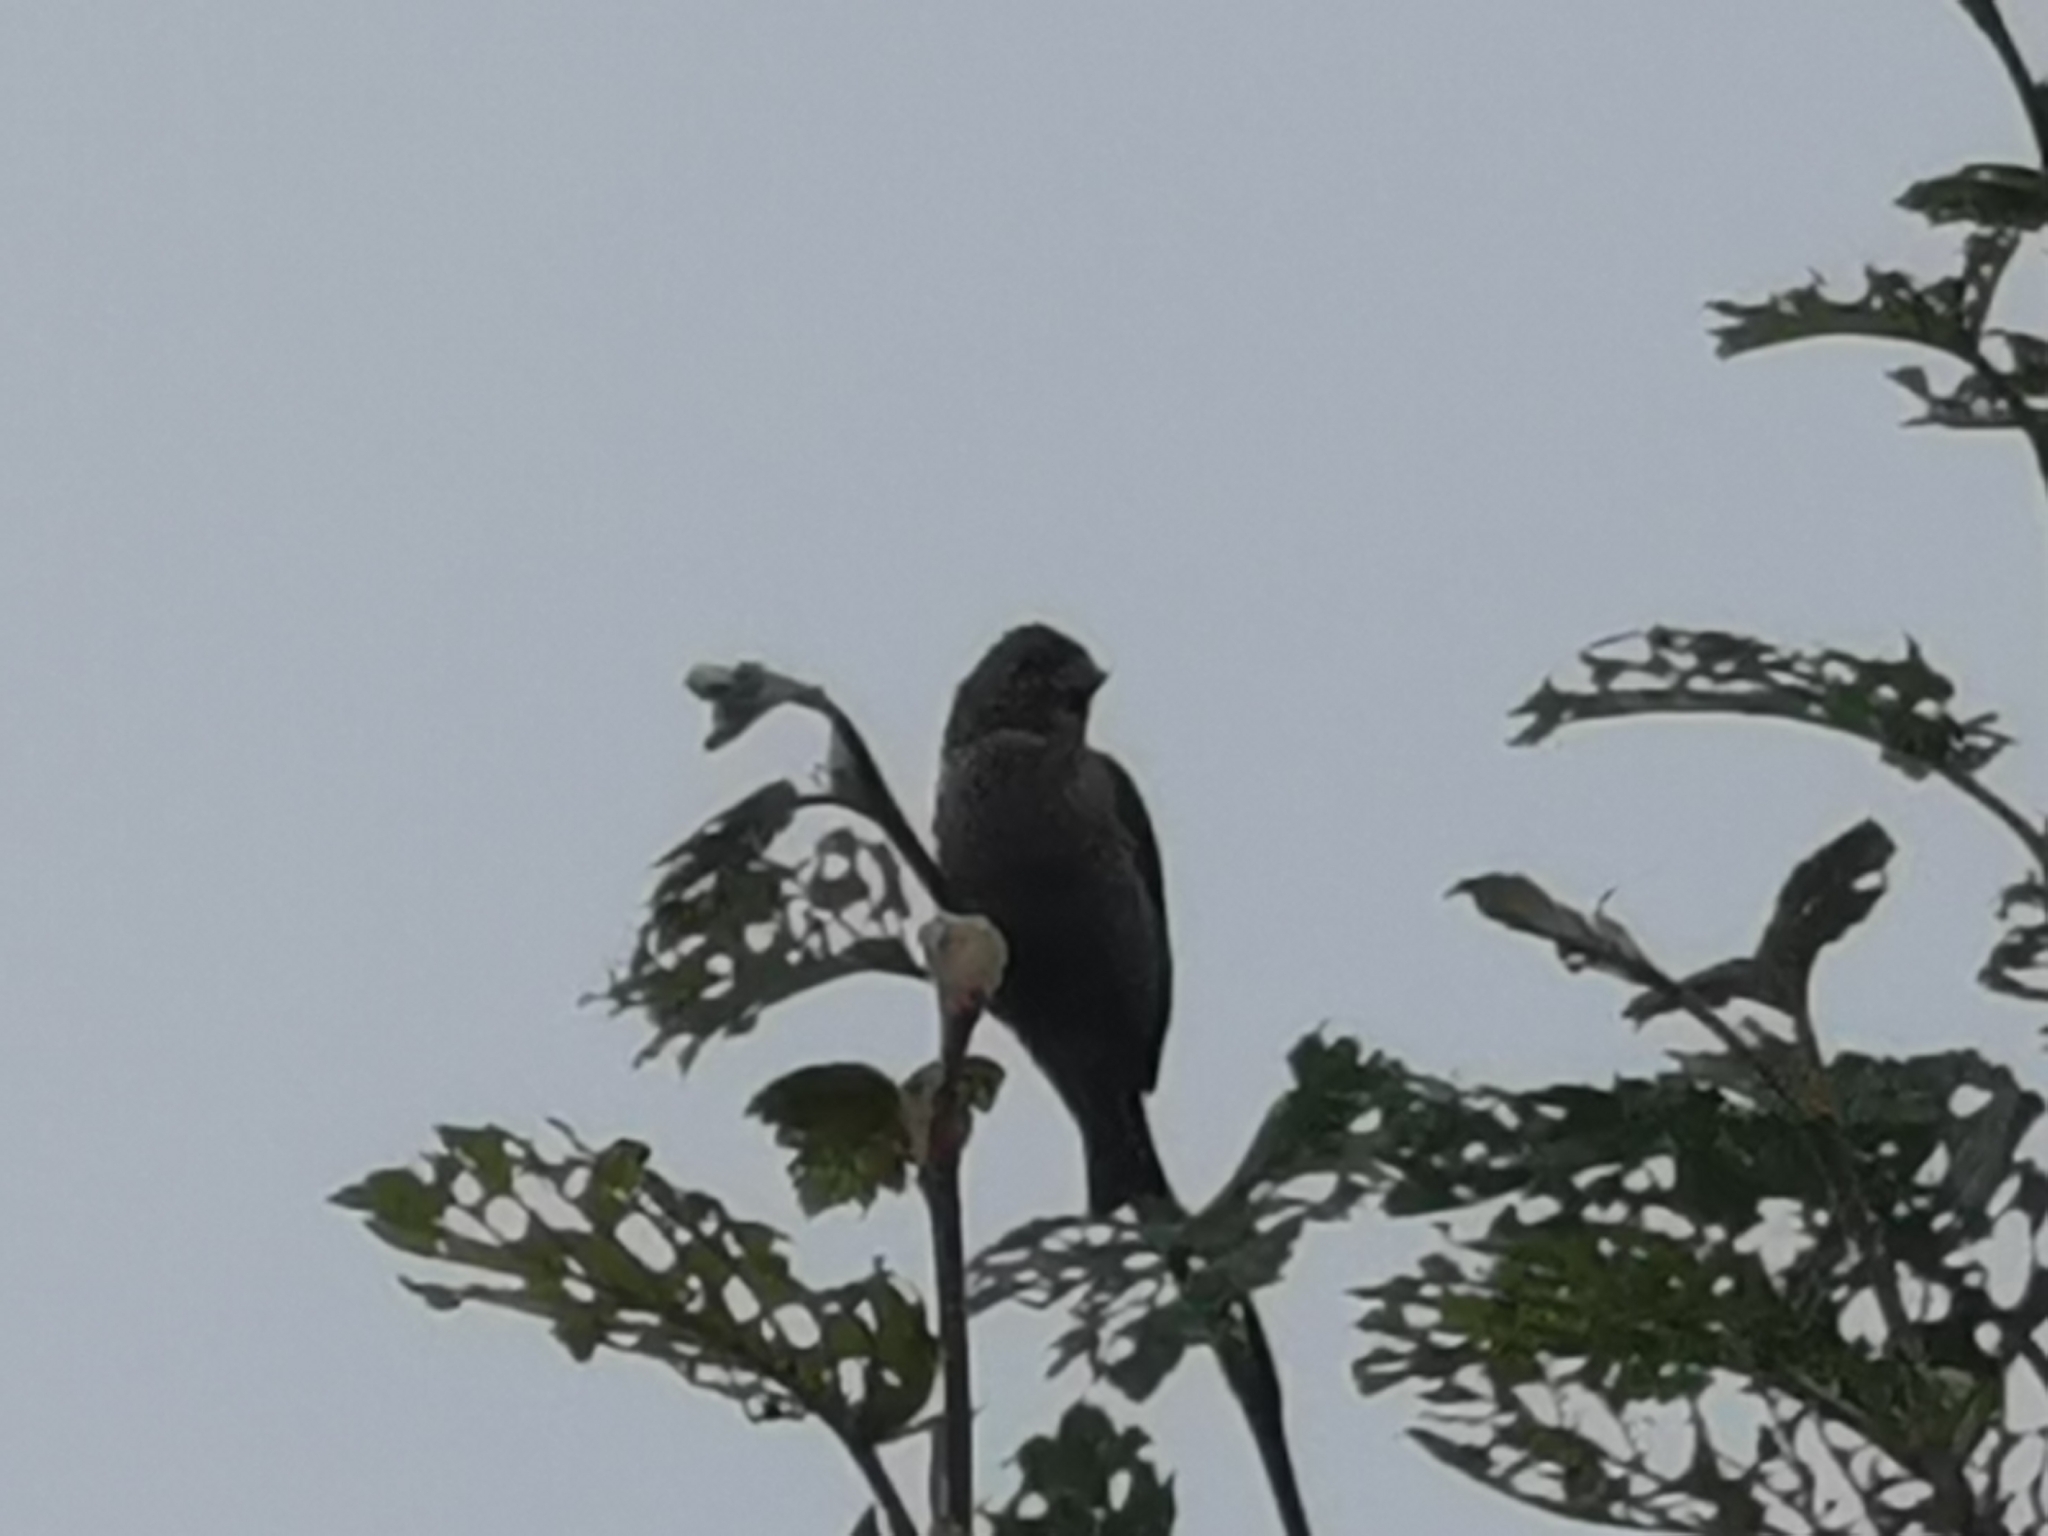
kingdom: Animalia
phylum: Chordata
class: Aves
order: Passeriformes
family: Fringillidae
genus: Carpodacus
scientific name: Carpodacus erythrinus
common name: Common rosefinch
